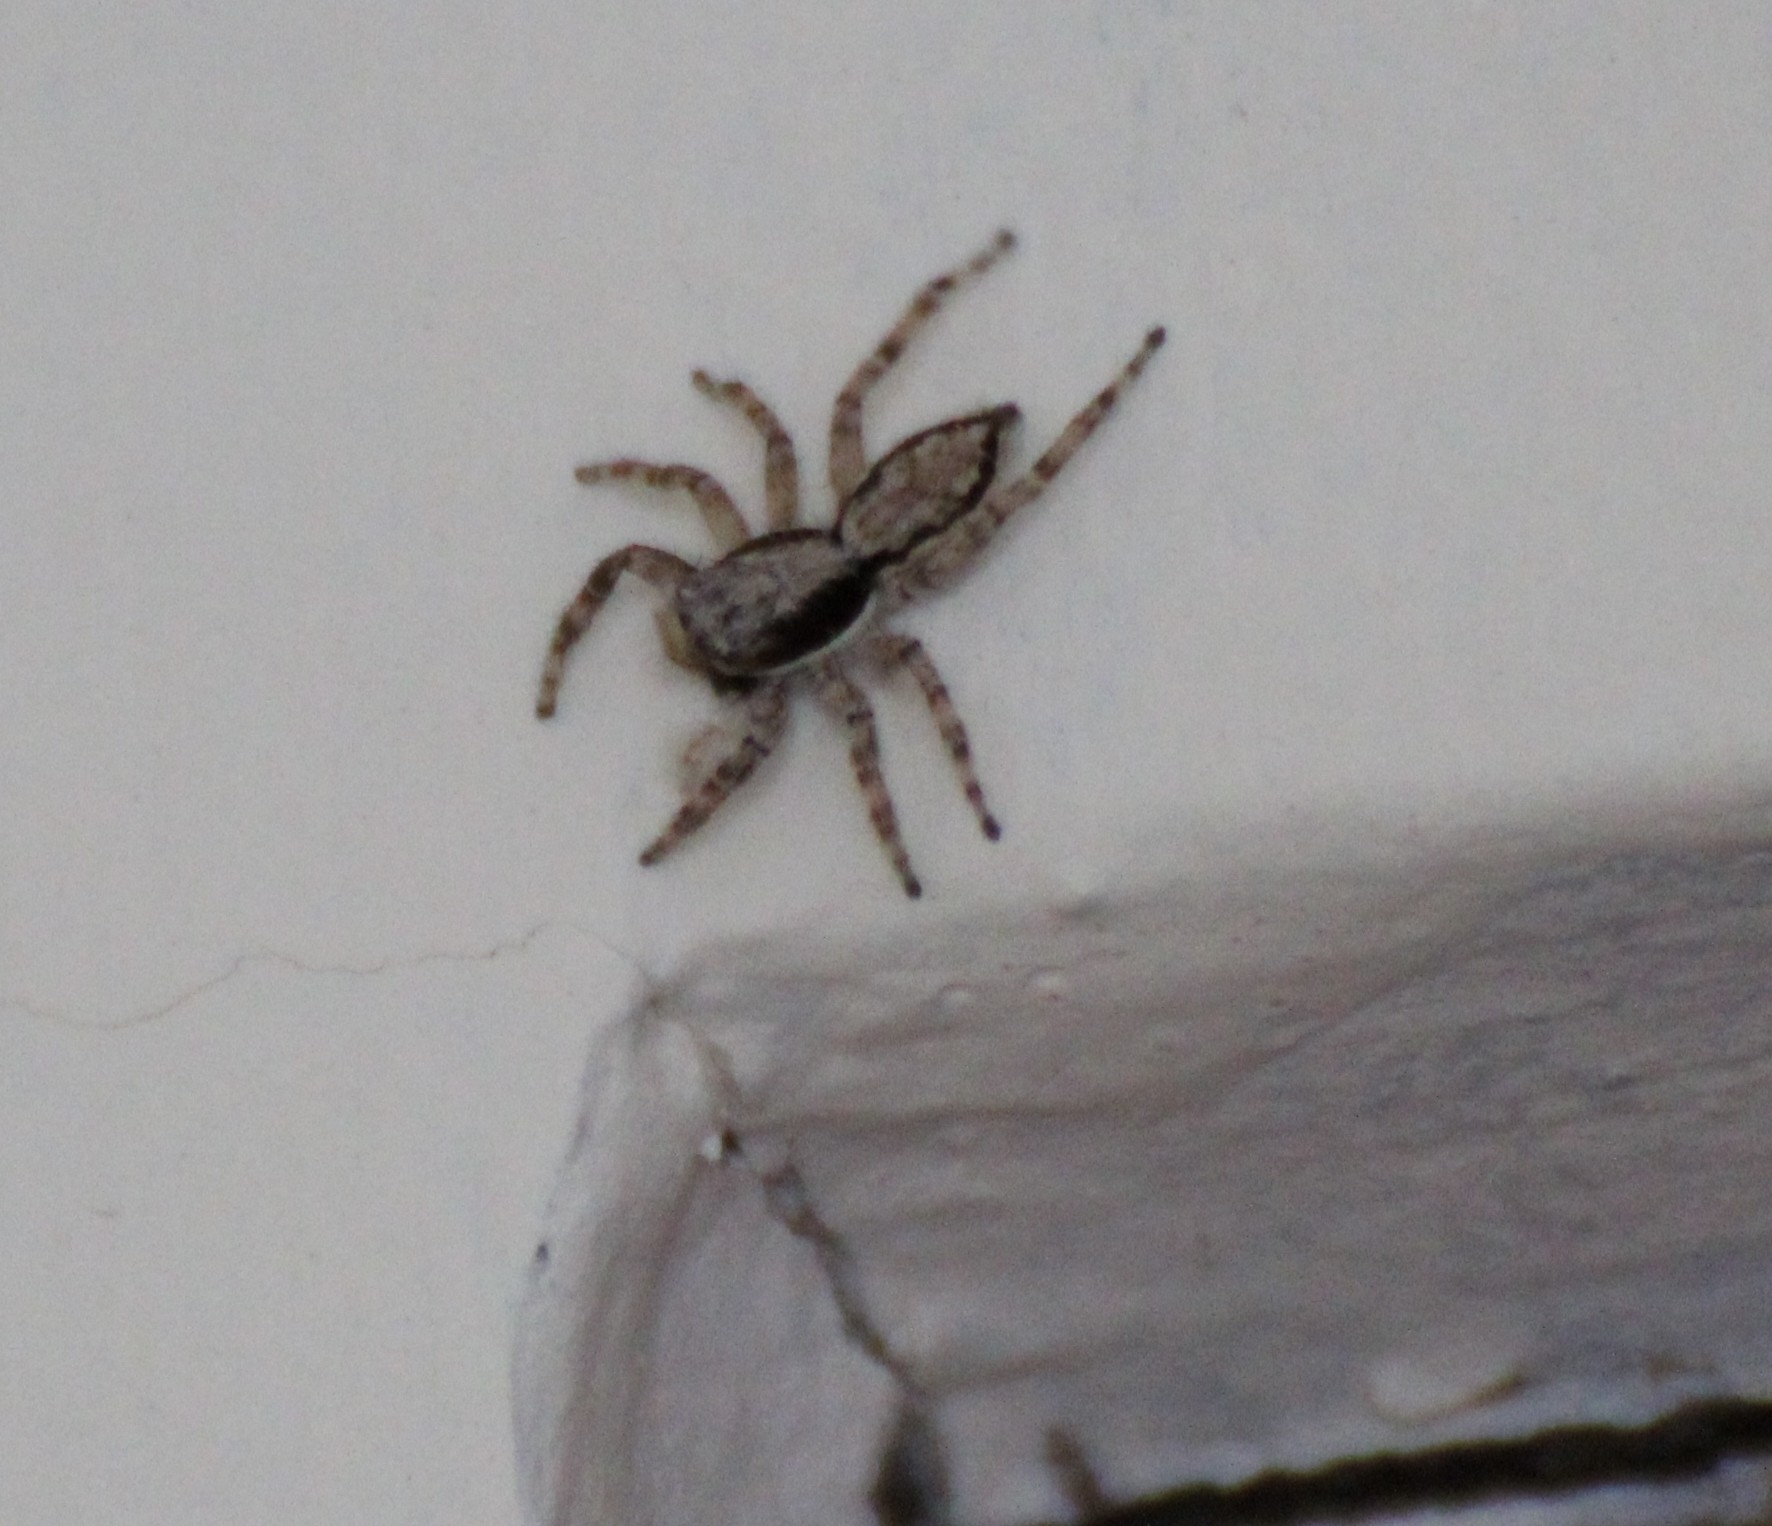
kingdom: Animalia
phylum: Arthropoda
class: Arachnida
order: Araneae
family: Salticidae
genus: Menemerus
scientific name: Menemerus bivittatus
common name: Gray wall jumper
